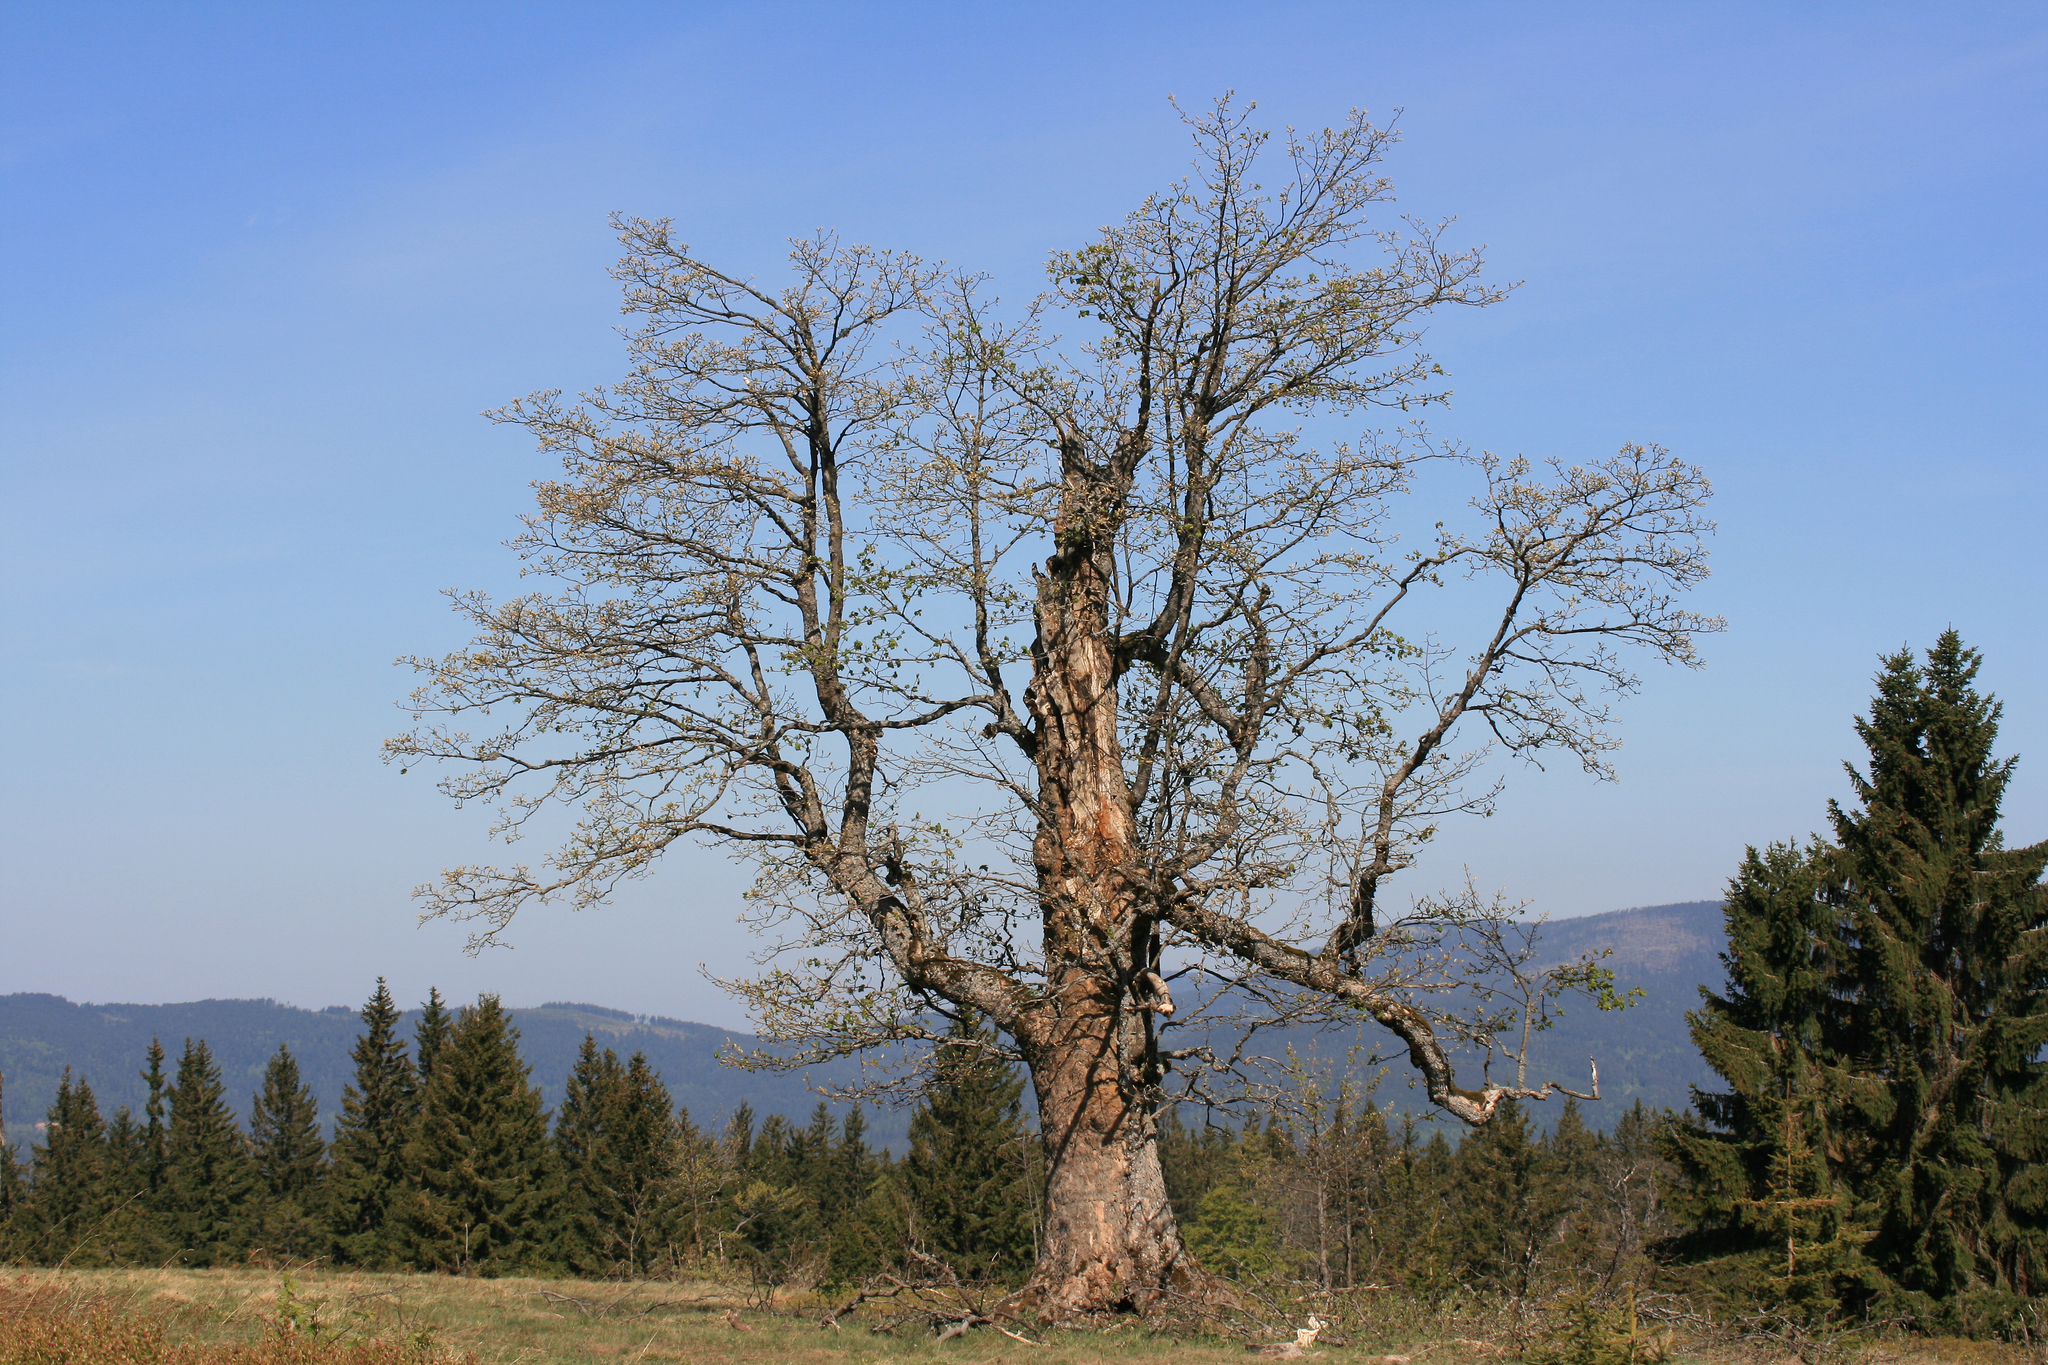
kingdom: Plantae
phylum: Tracheophyta
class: Magnoliopsida
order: Sapindales
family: Sapindaceae
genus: Acer
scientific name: Acer pseudoplatanus
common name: Sycamore
